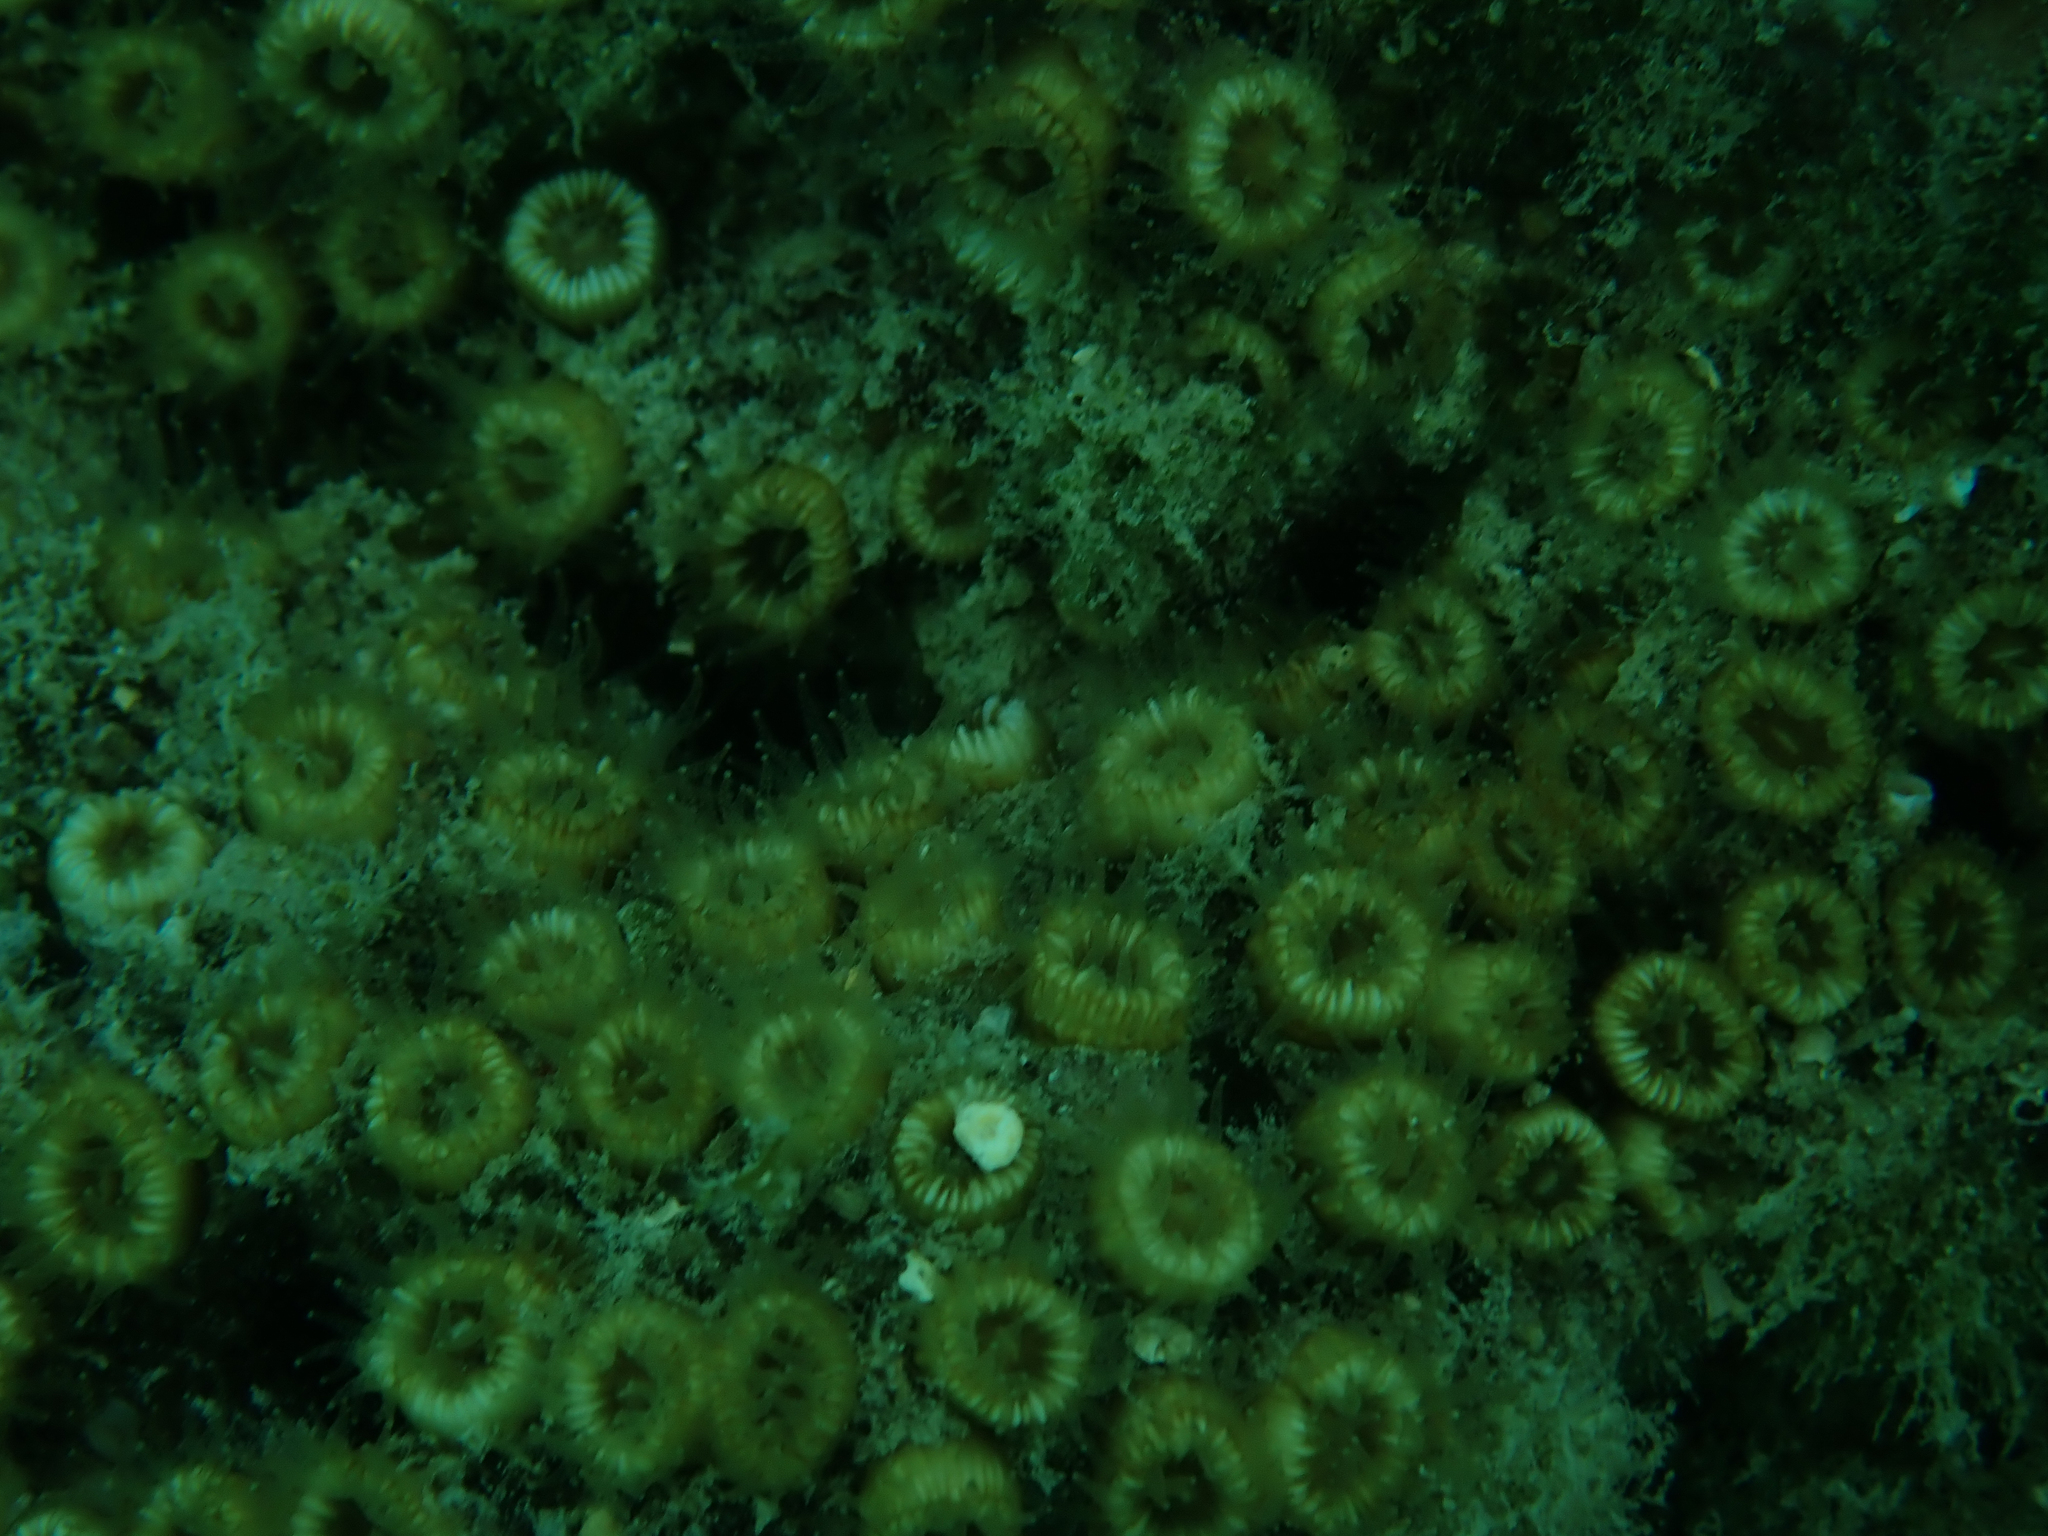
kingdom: Animalia
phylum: Cnidaria
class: Anthozoa
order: Scleractinia
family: Cladocoridae
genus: Cladocora
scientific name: Cladocora caespitosa
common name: Cladocora
